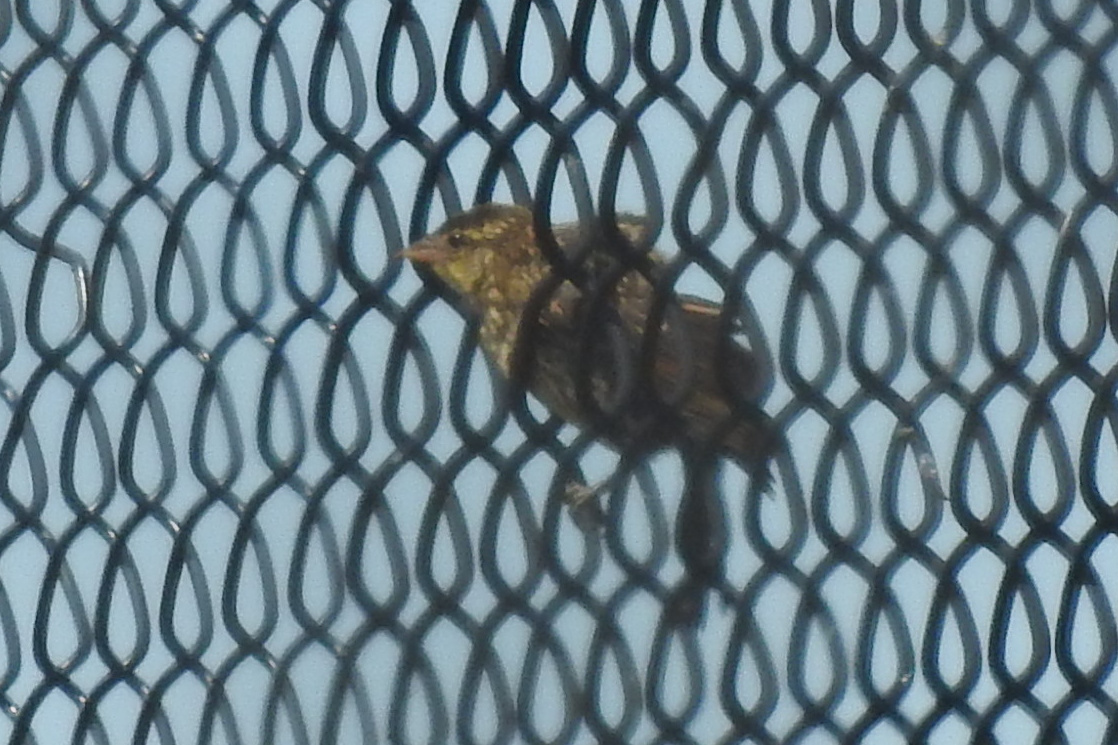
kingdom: Animalia
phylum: Chordata
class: Aves
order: Passeriformes
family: Icteridae
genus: Agelaius
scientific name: Agelaius phoeniceus
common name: Red-winged blackbird
